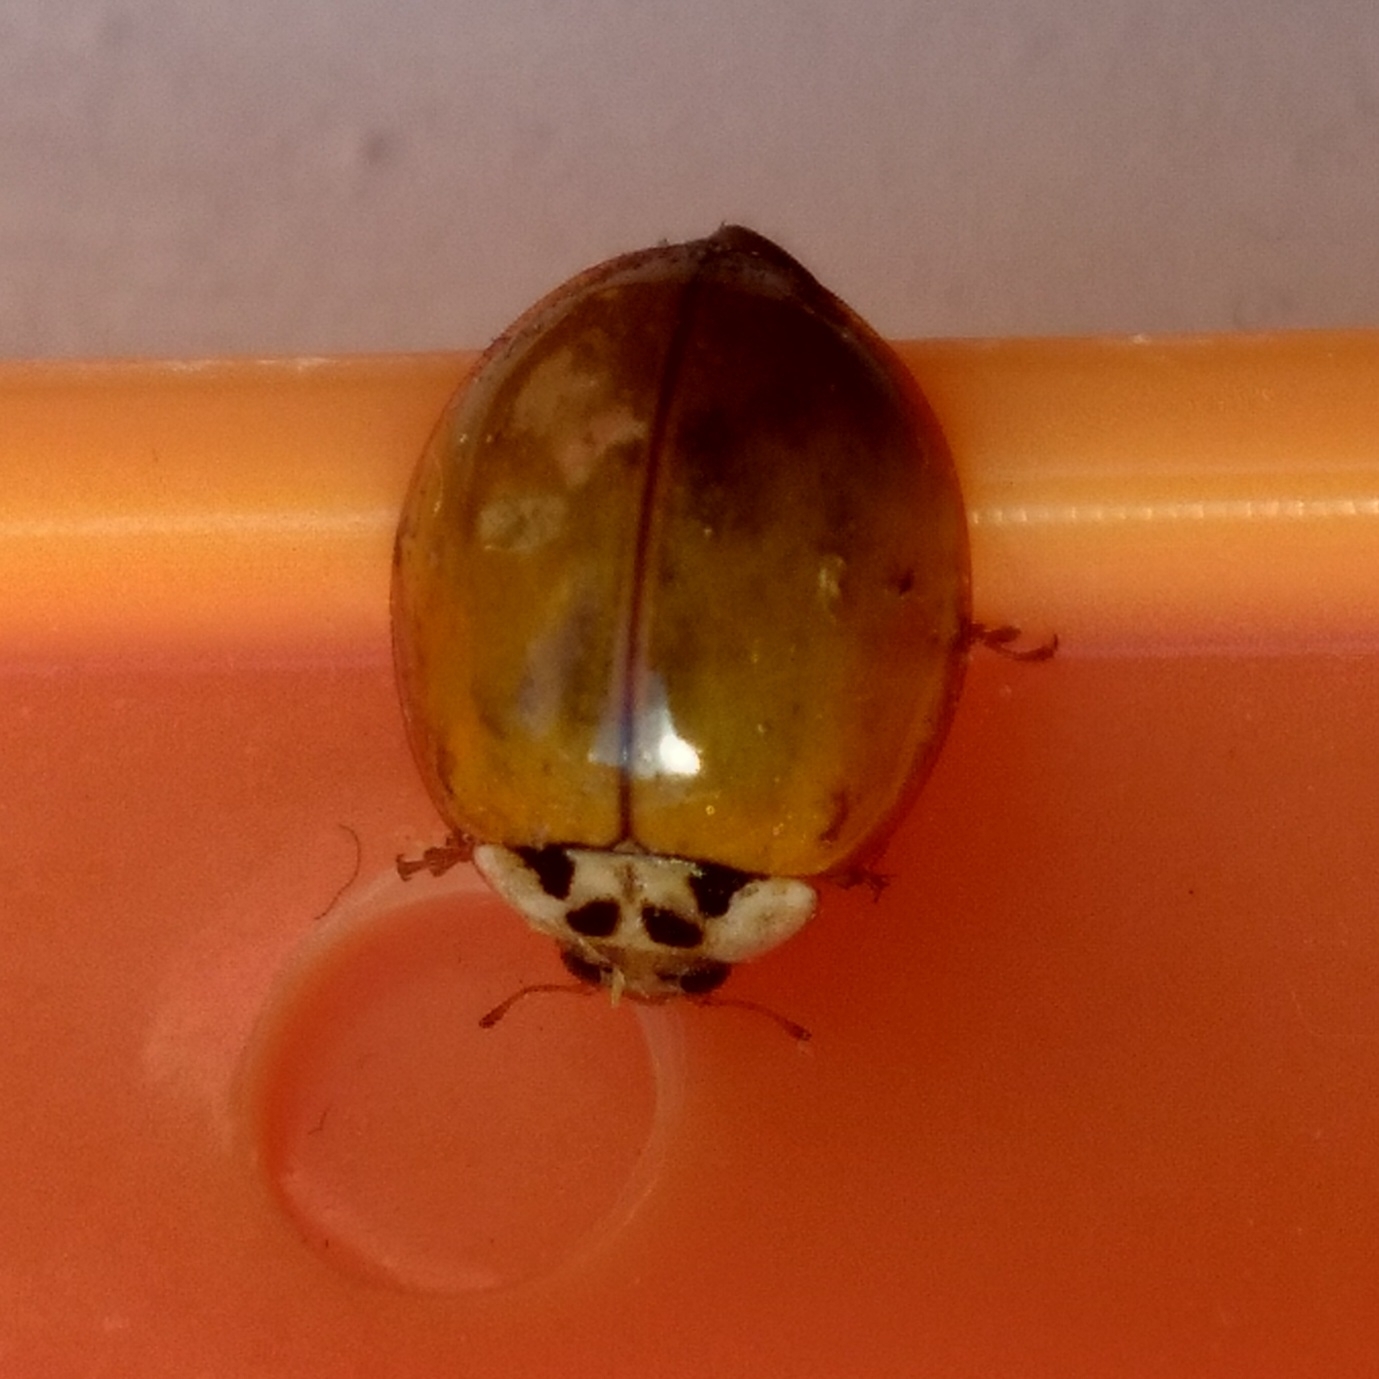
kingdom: Animalia
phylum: Arthropoda
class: Insecta
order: Coleoptera
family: Coccinellidae
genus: Harmonia
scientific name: Harmonia axyridis
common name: Harlequin ladybird
